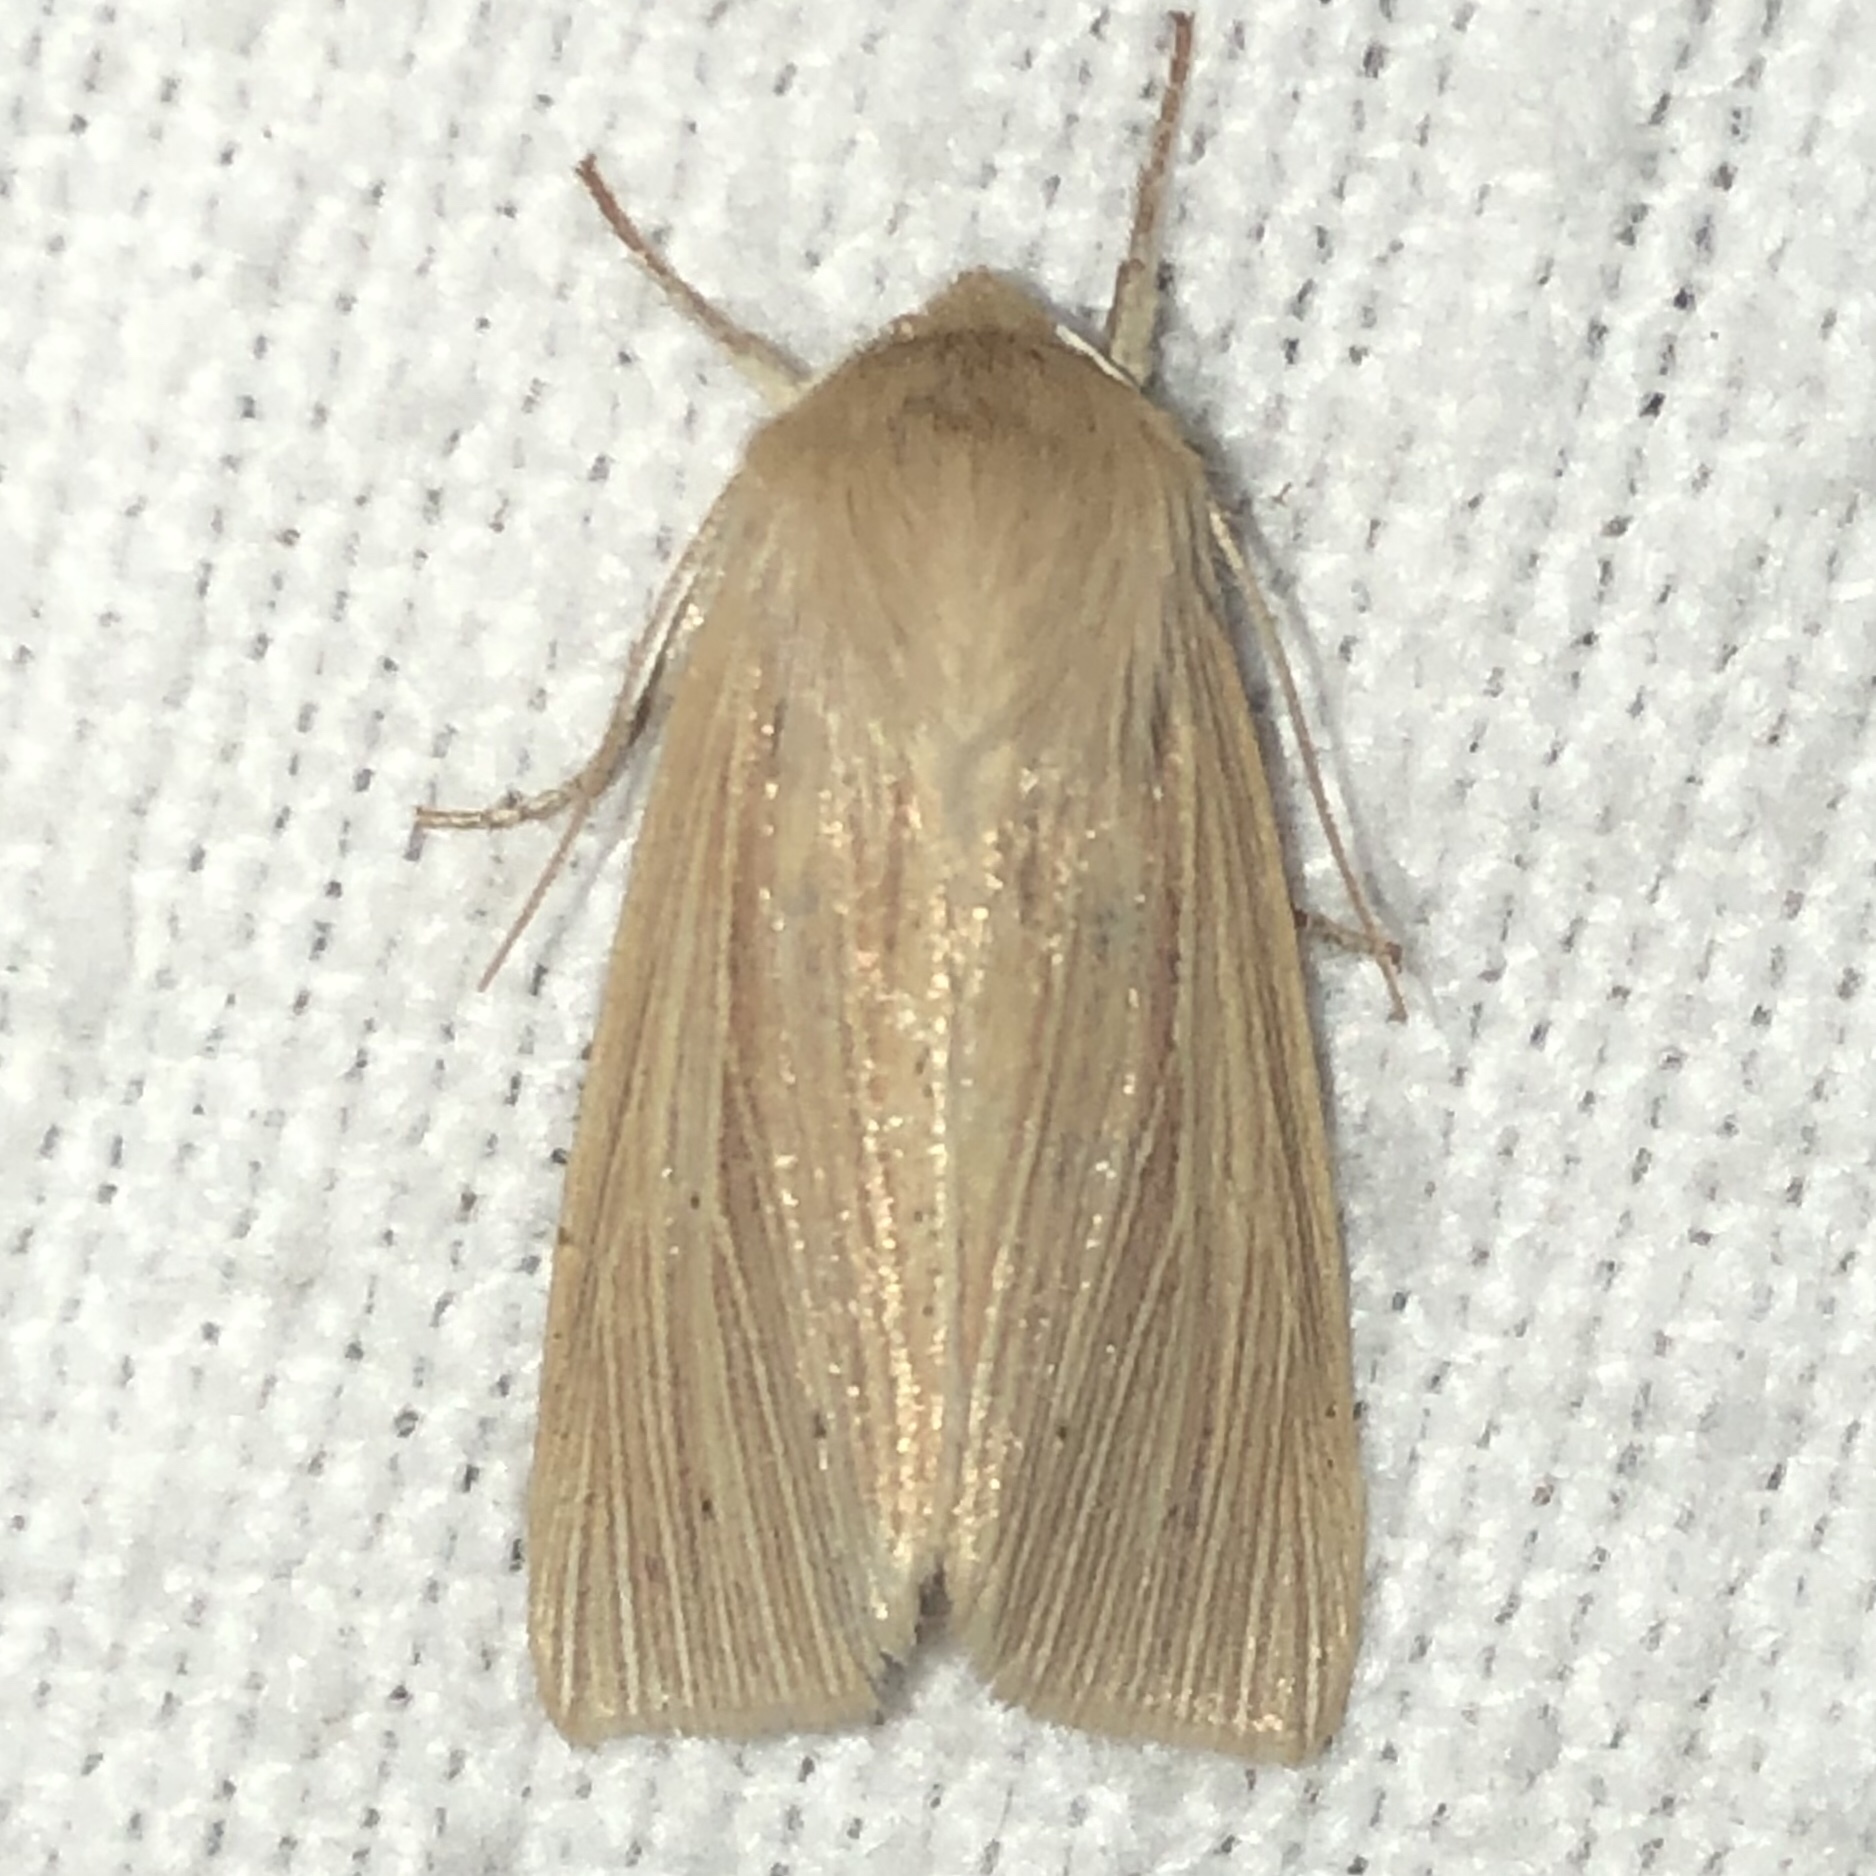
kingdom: Animalia
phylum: Arthropoda
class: Insecta
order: Lepidoptera
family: Noctuidae
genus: Mythimna
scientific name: Mythimna oxygala
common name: Lesser wainscot
